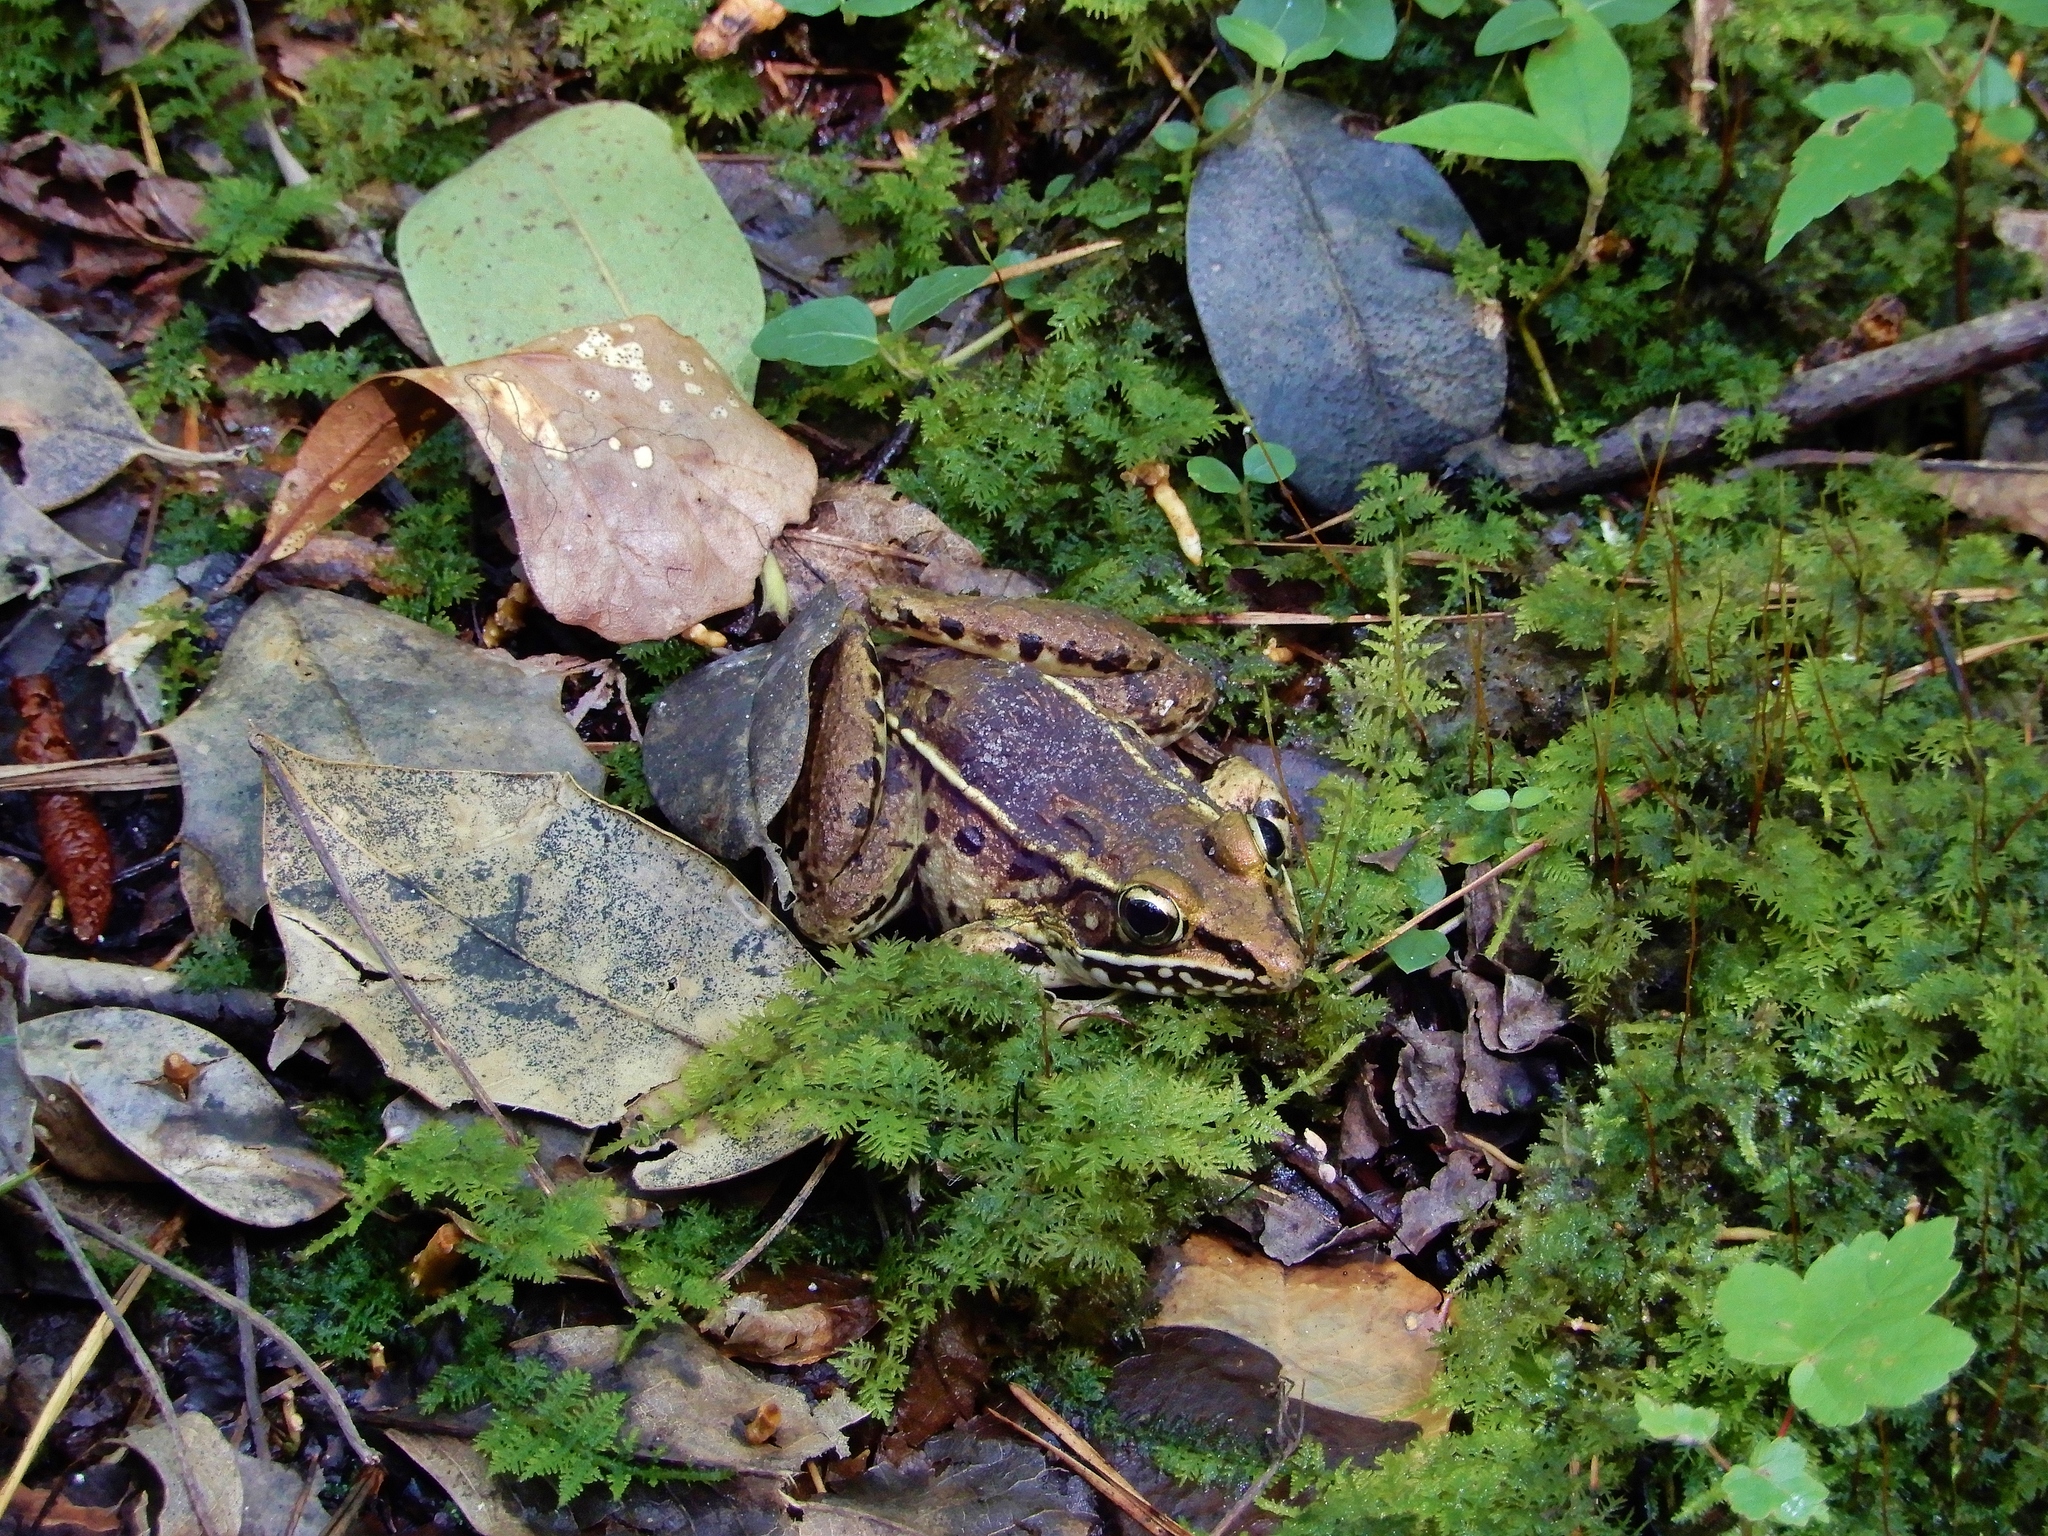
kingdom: Animalia
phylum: Chordata
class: Amphibia
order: Anura
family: Ranidae
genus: Lithobates
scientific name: Lithobates sphenocephalus
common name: Southern leopard frog
